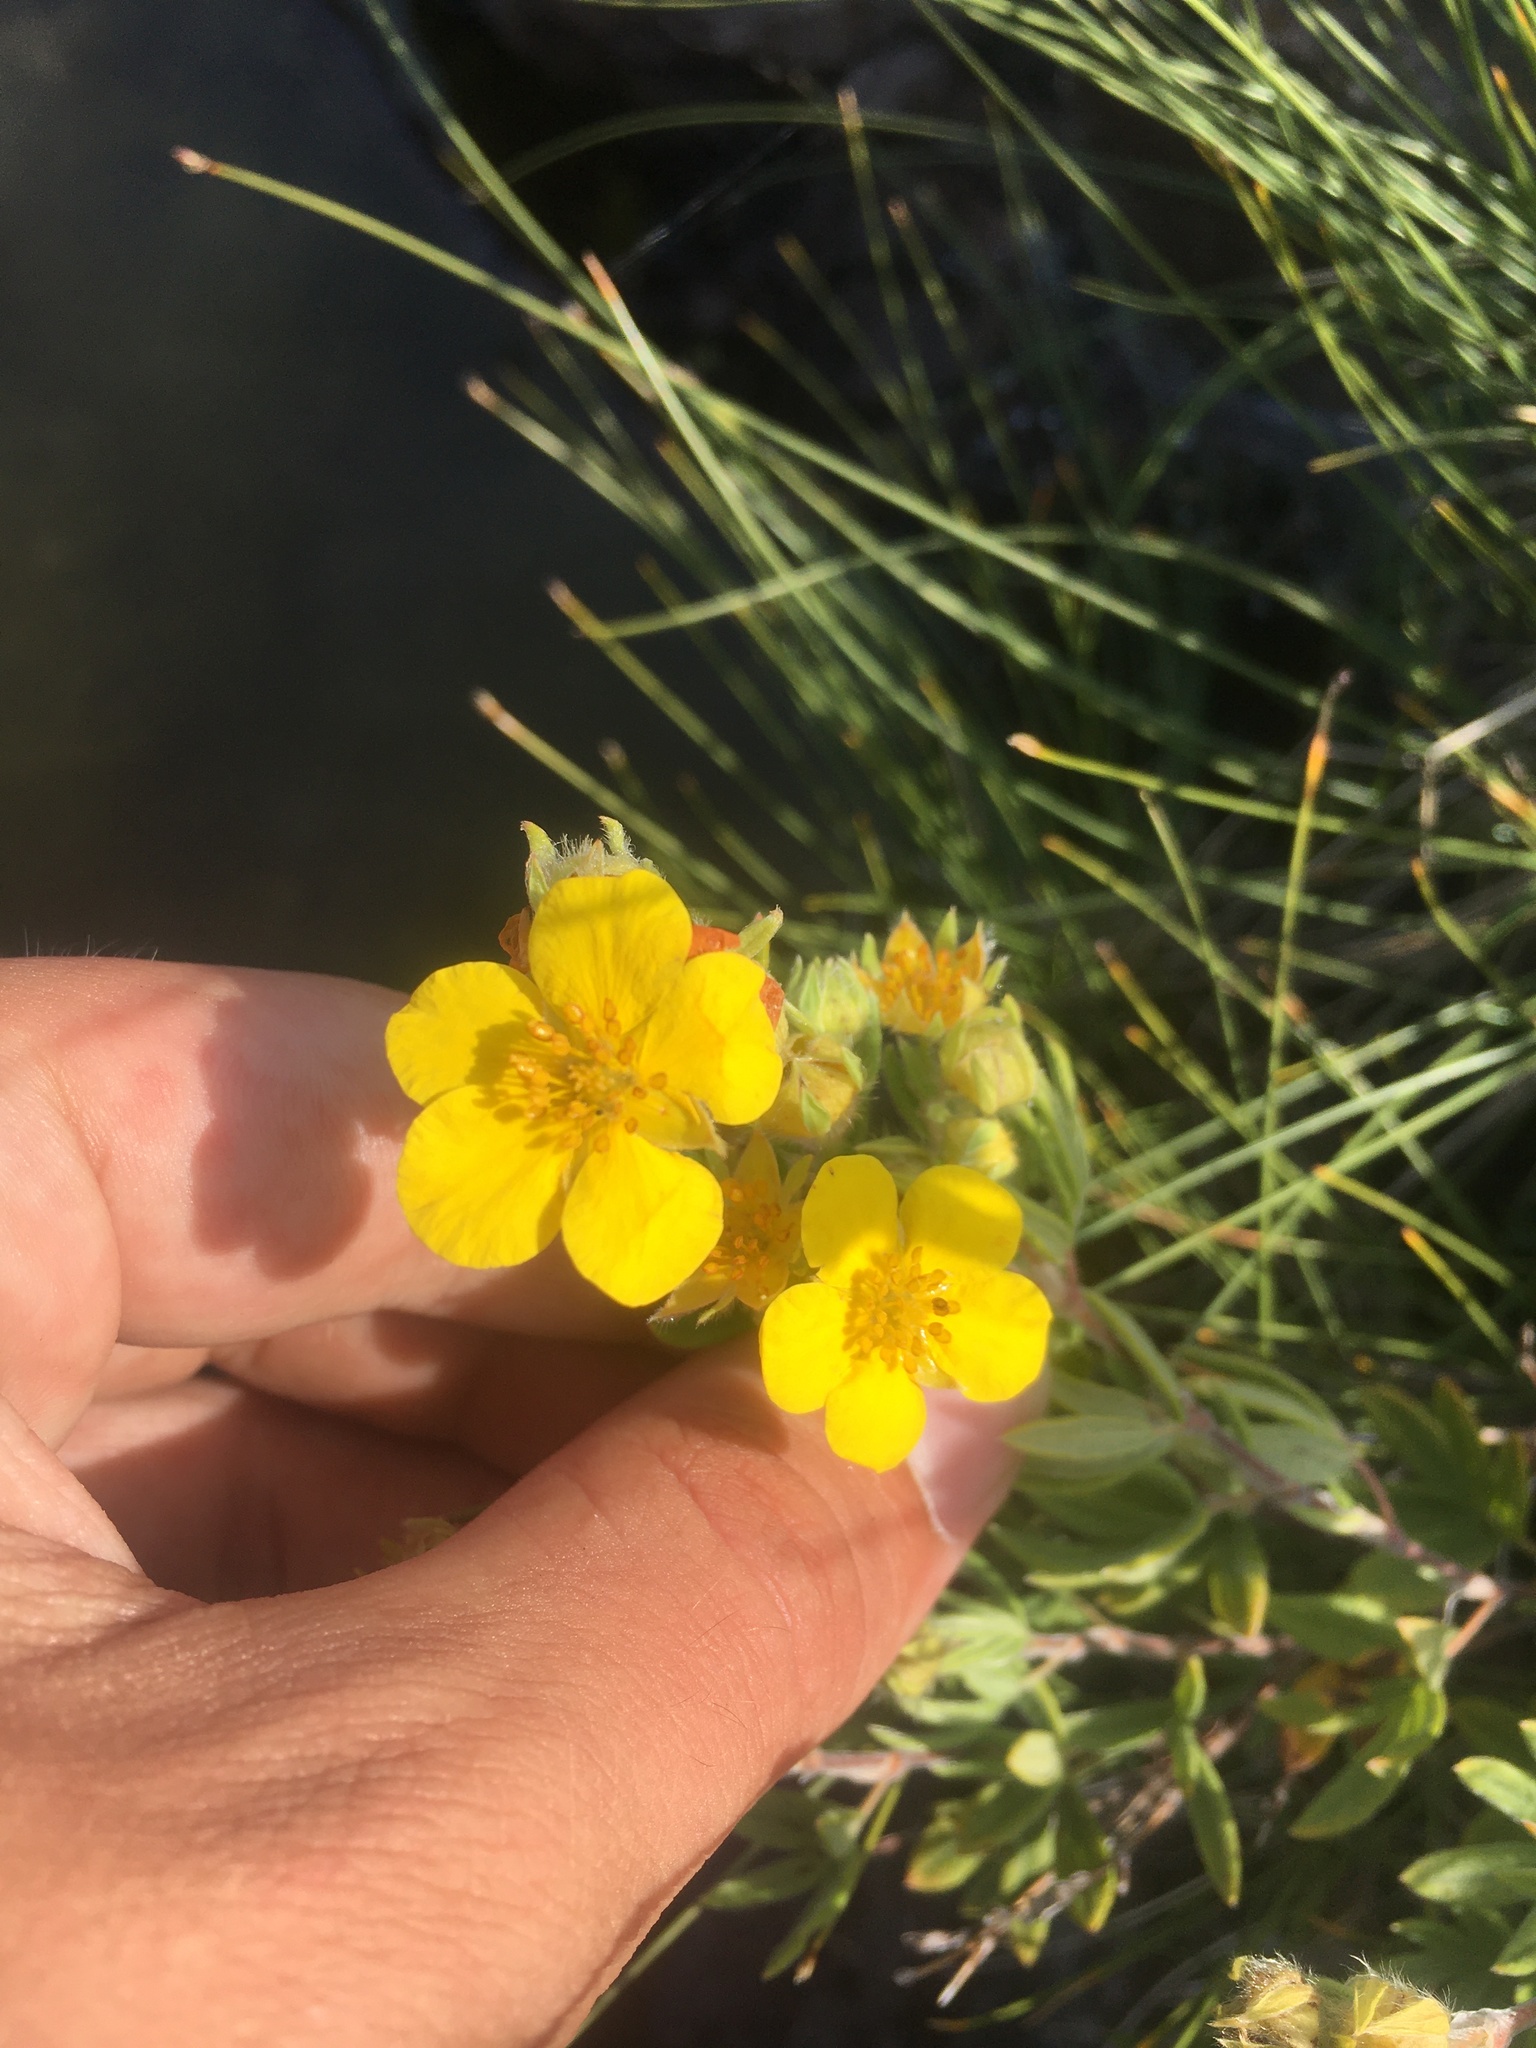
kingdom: Plantae
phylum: Tracheophyta
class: Magnoliopsida
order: Rosales
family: Rosaceae
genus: Dasiphora
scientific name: Dasiphora fruticosa
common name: Shrubby cinquefoil
